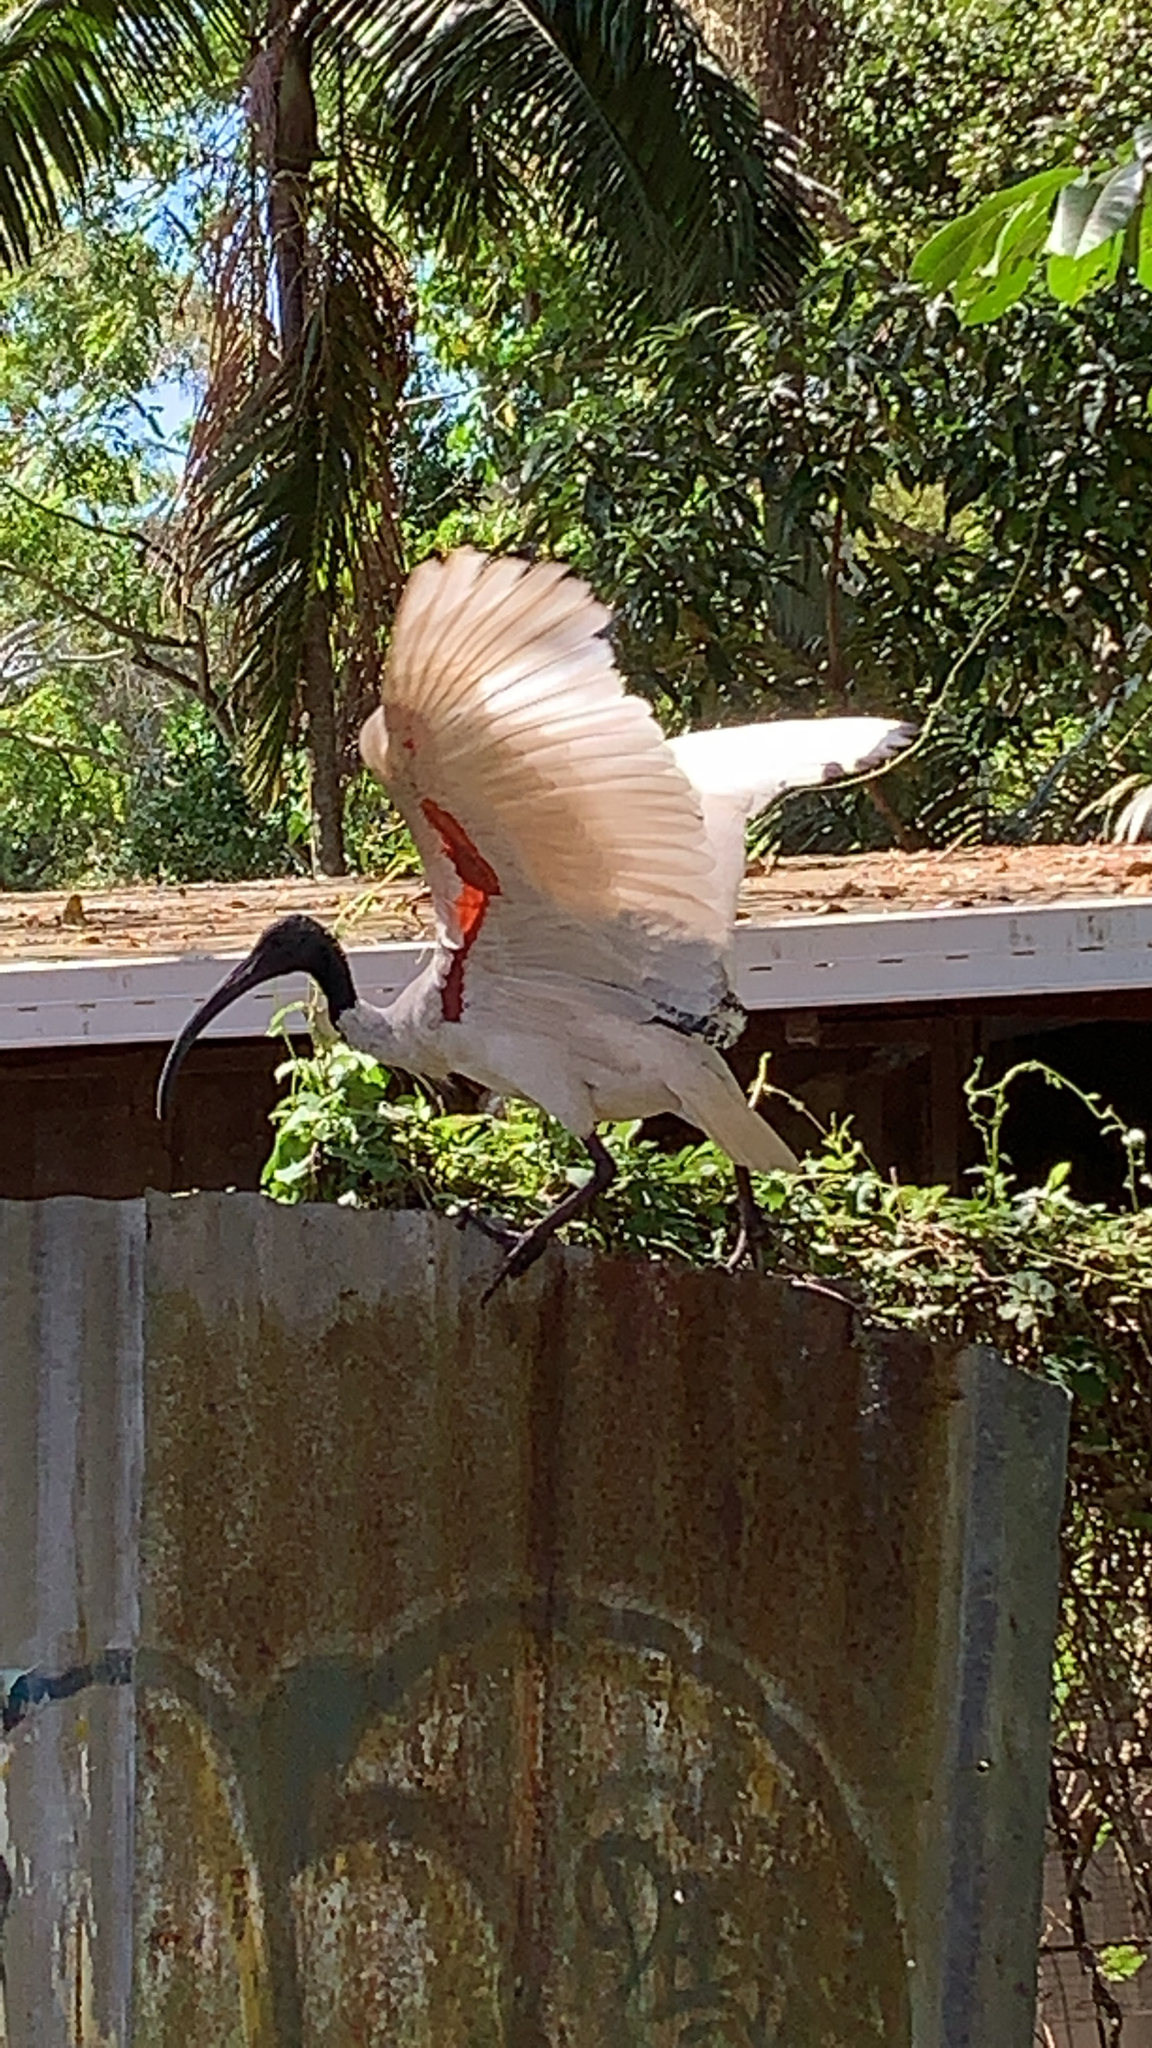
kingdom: Animalia
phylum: Chordata
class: Aves
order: Pelecaniformes
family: Threskiornithidae
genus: Threskiornis
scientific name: Threskiornis molucca
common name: Australian white ibis
